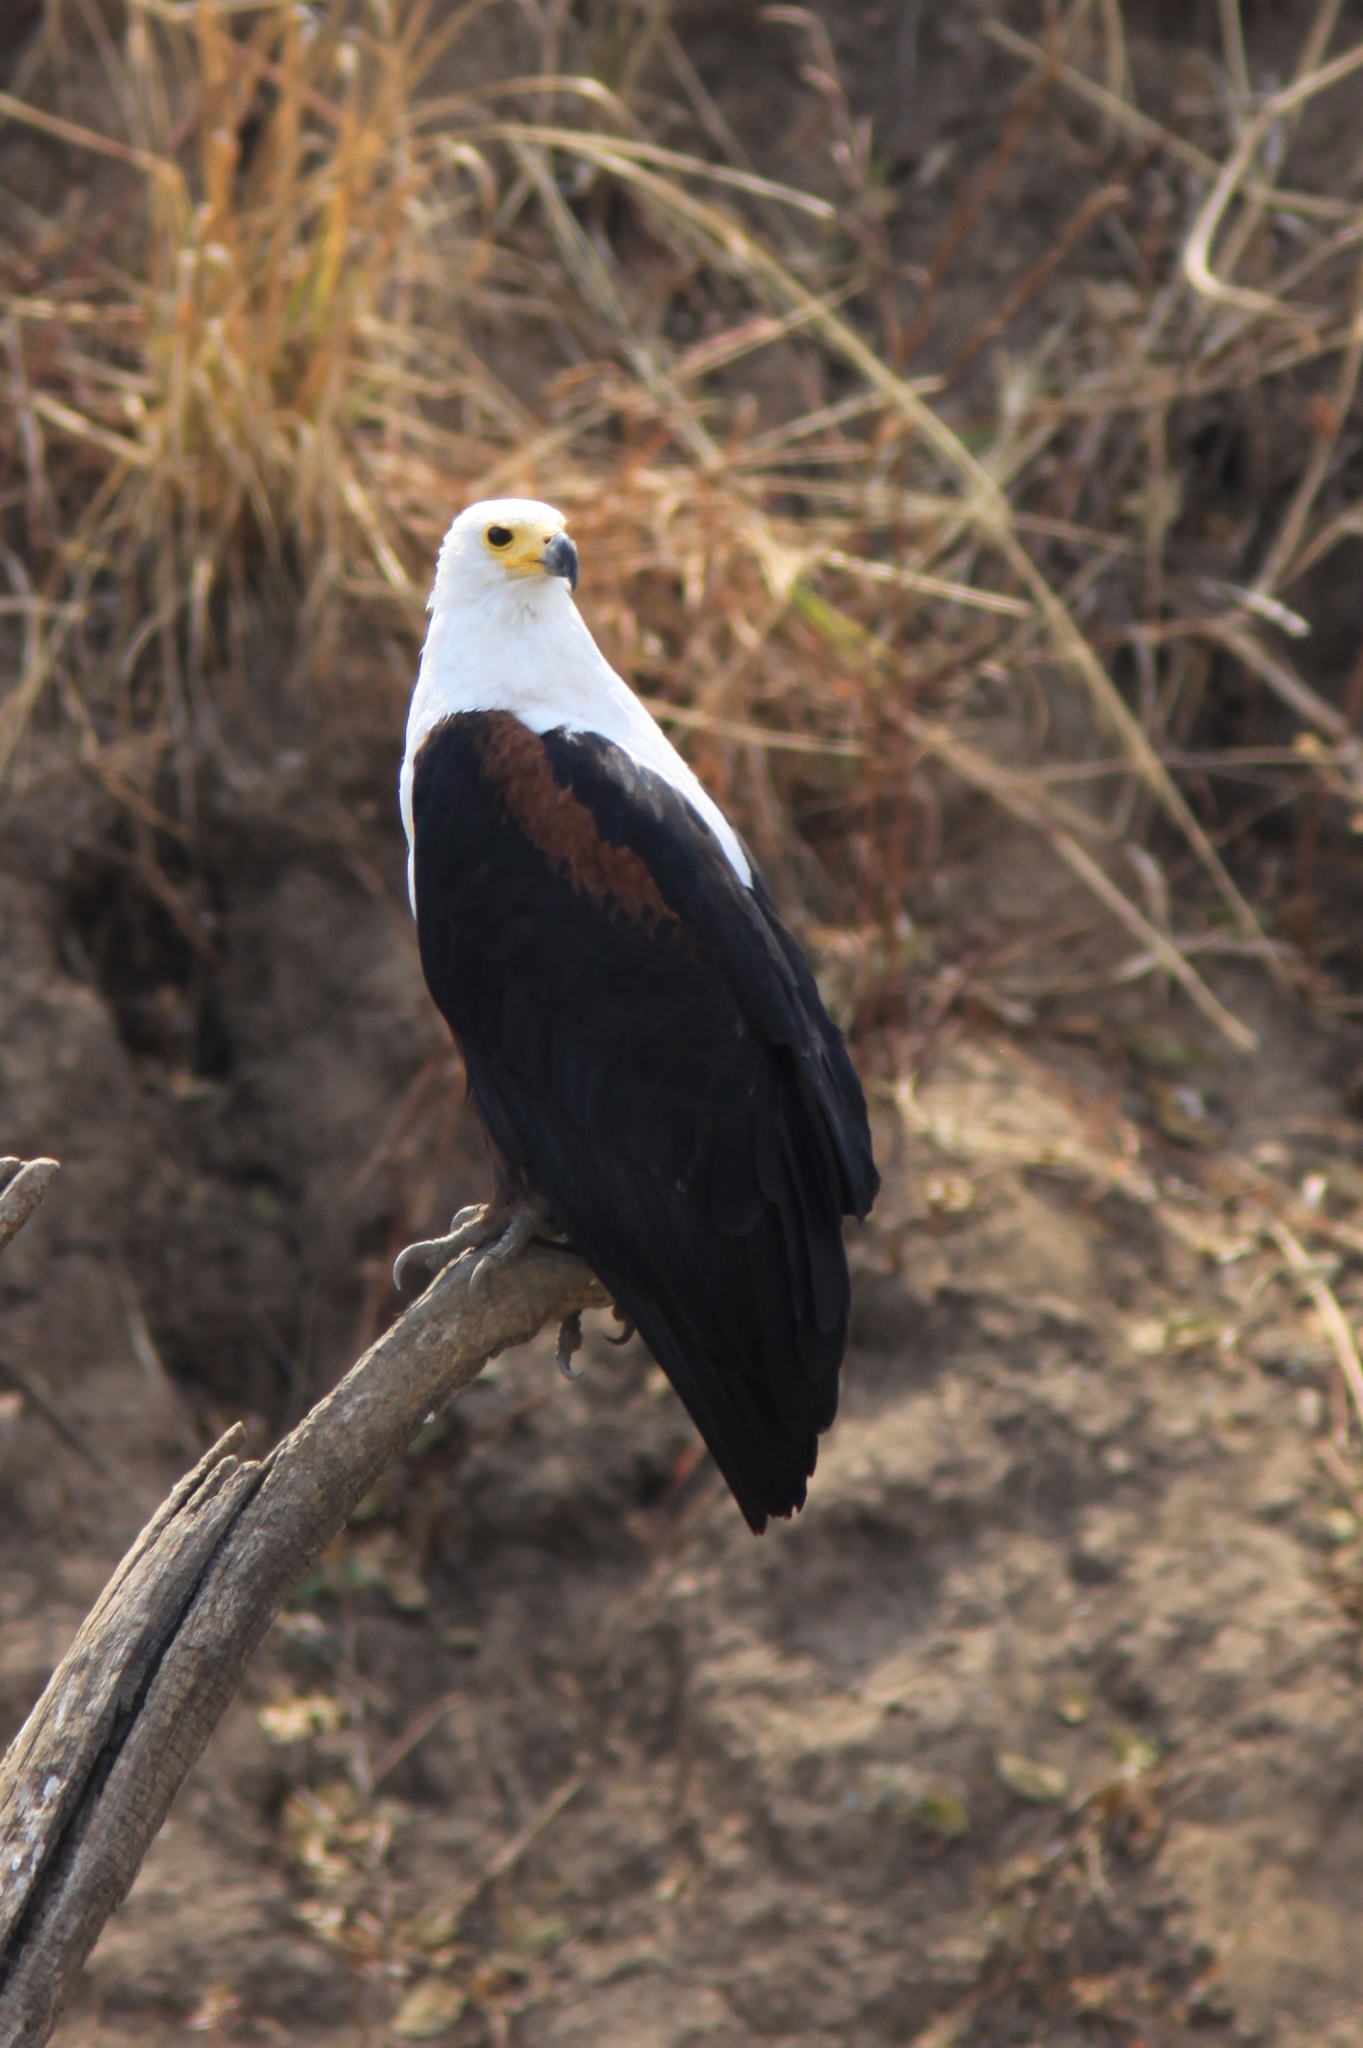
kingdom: Animalia
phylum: Chordata
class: Aves
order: Accipitriformes
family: Accipitridae
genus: Haliaeetus
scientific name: Haliaeetus vocifer
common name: African fish eagle
